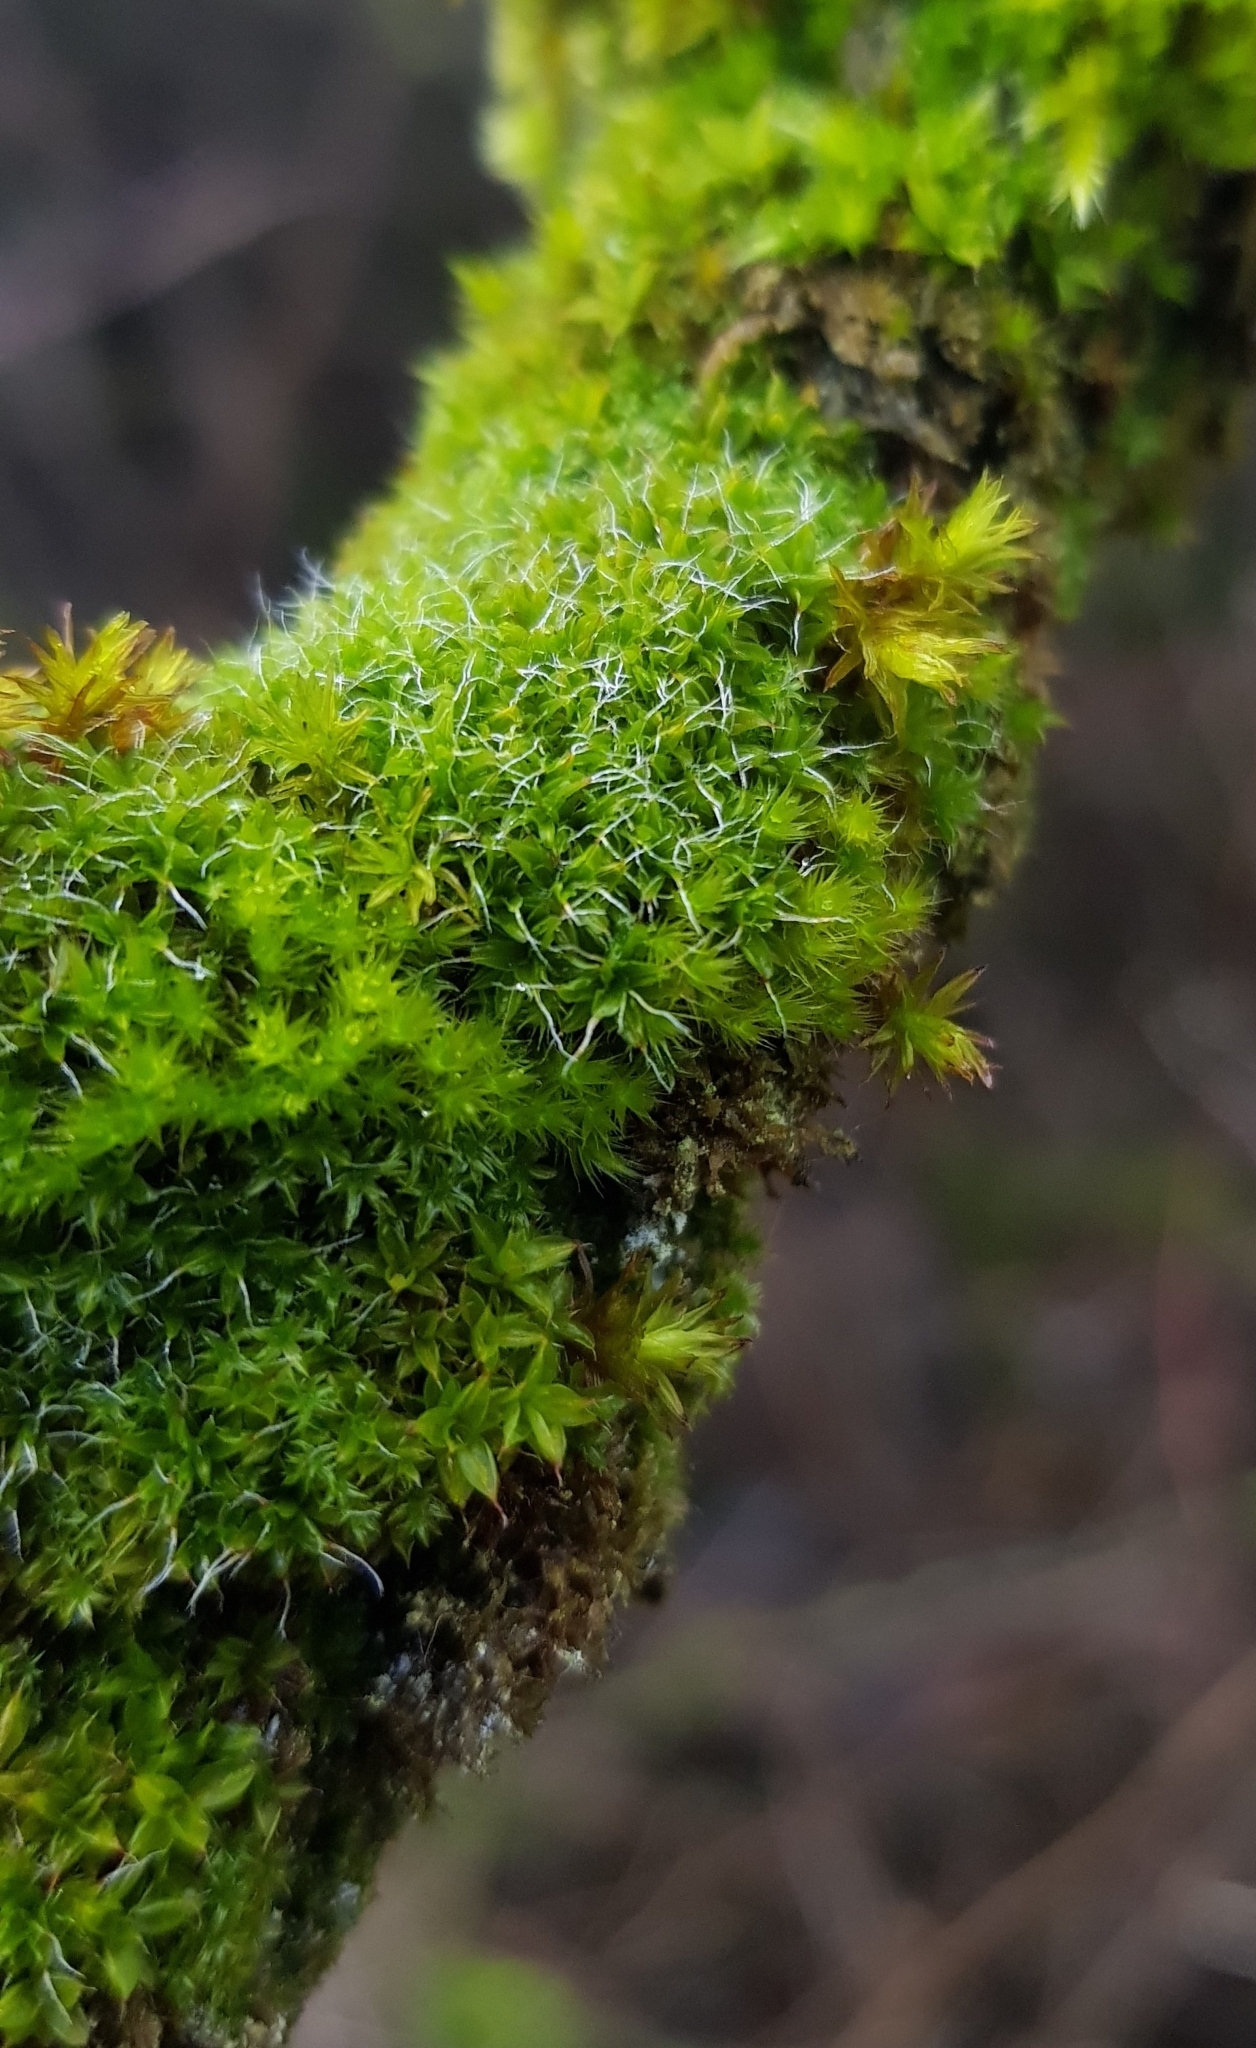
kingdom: Plantae
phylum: Bryophyta
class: Bryopsida
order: Pottiales
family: Pottiaceae
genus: Syntrichia
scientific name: Syntrichia virescens
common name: Lesser screw-moss
